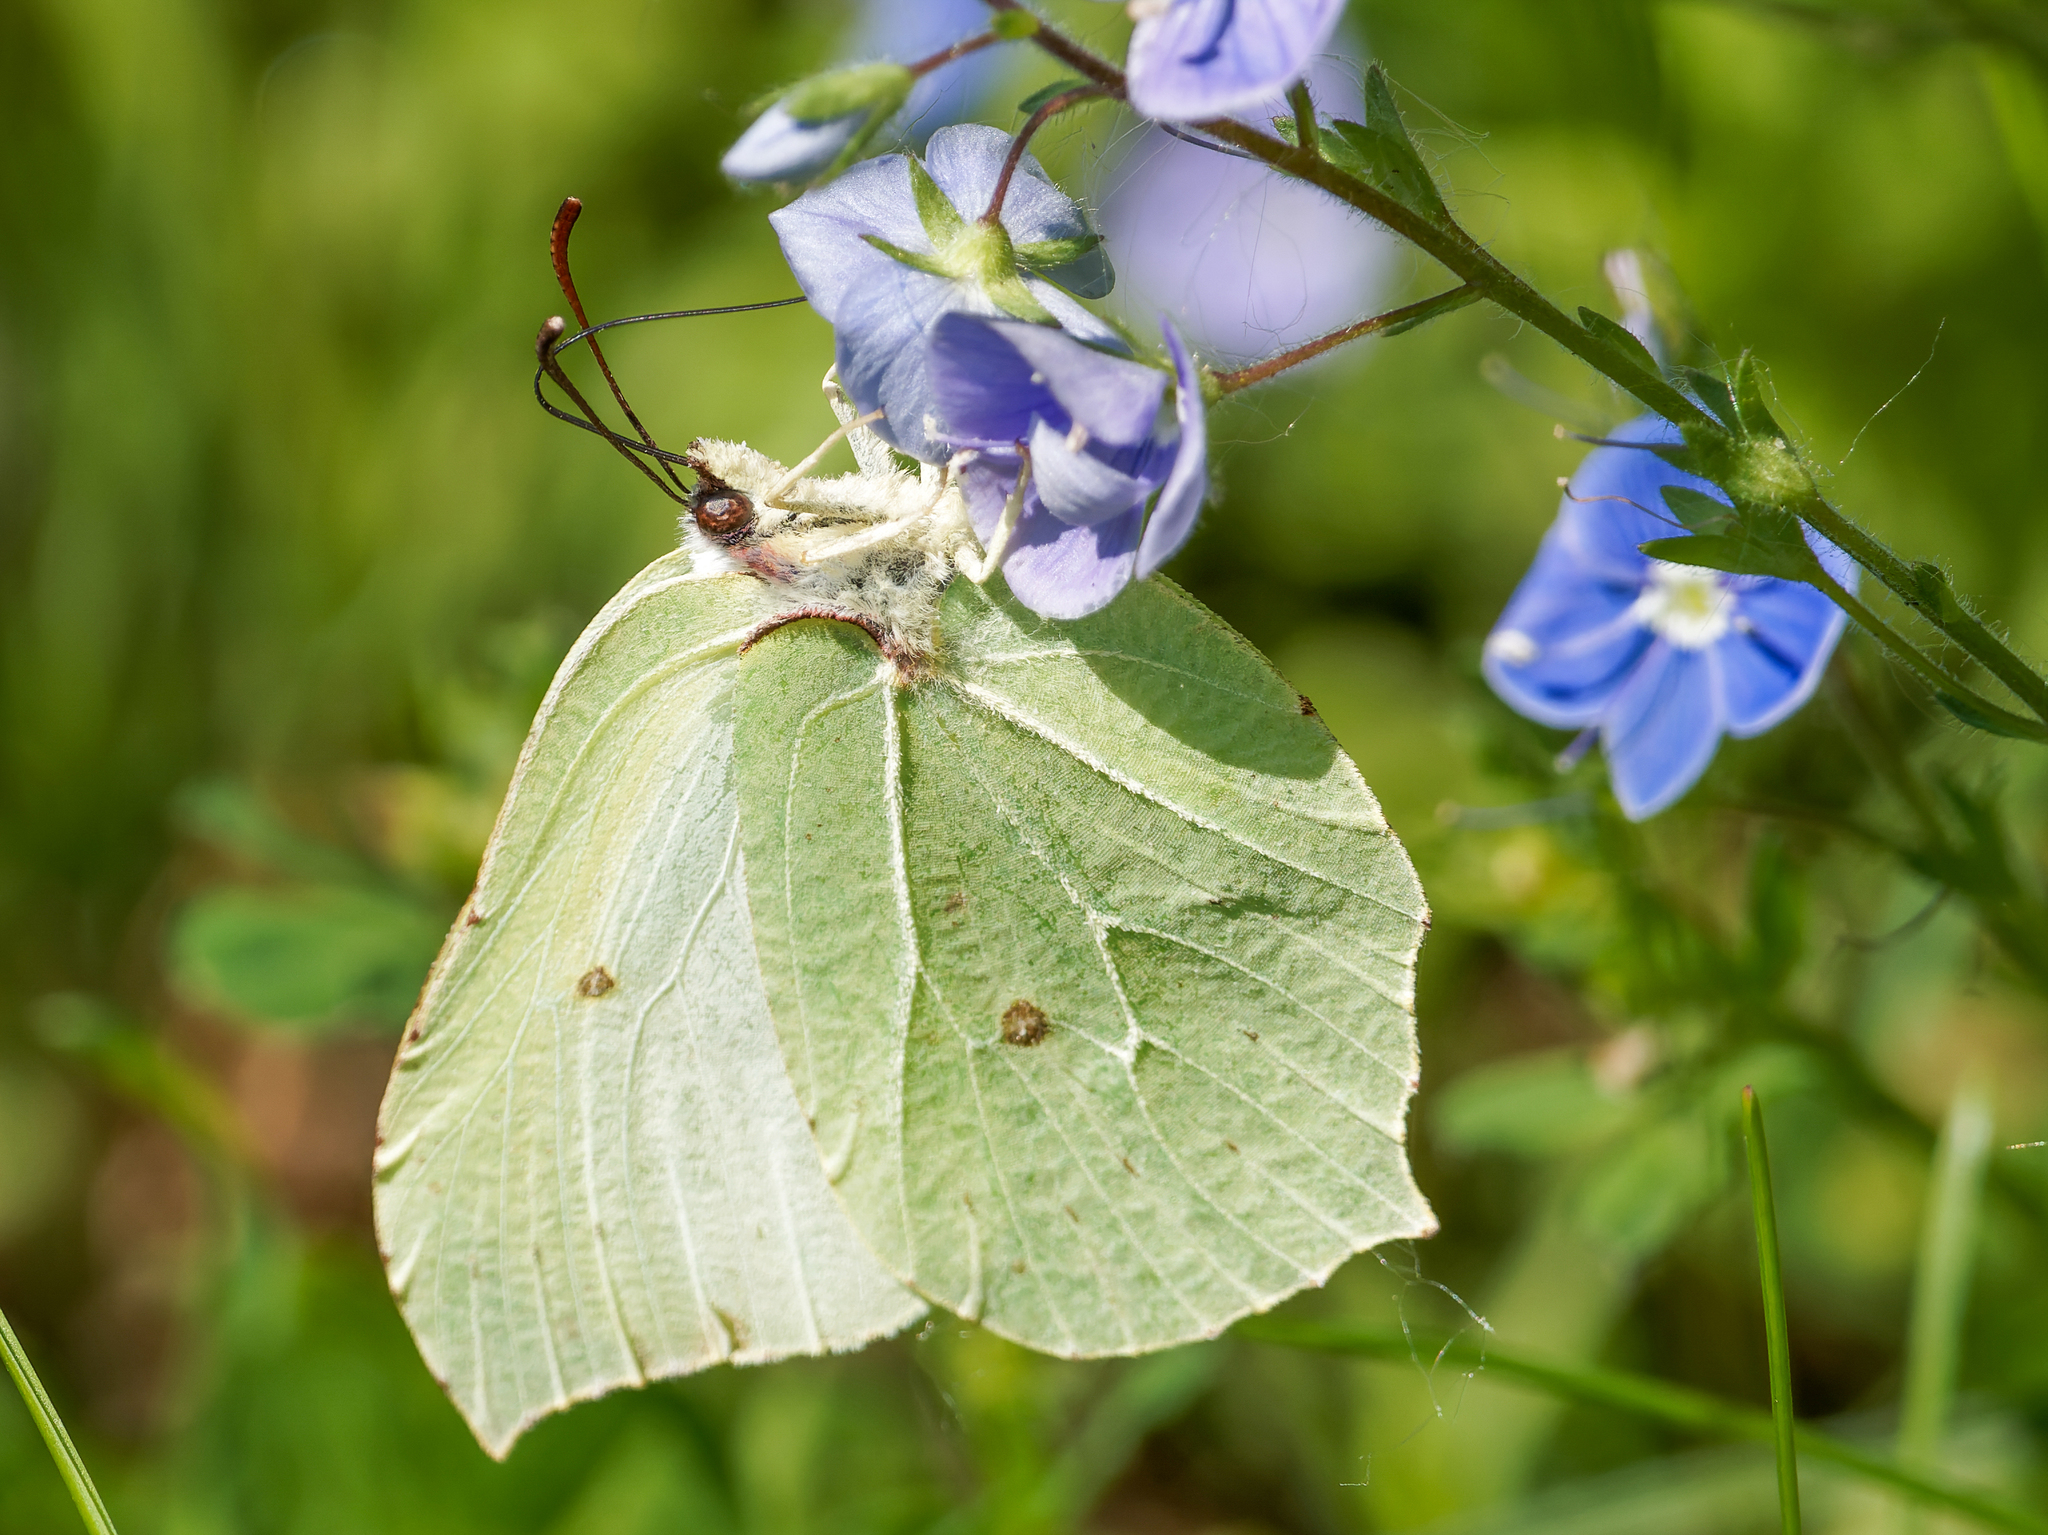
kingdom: Animalia
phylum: Arthropoda
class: Insecta
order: Lepidoptera
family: Pieridae
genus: Gonepteryx
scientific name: Gonepteryx rhamni
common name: Brimstone
